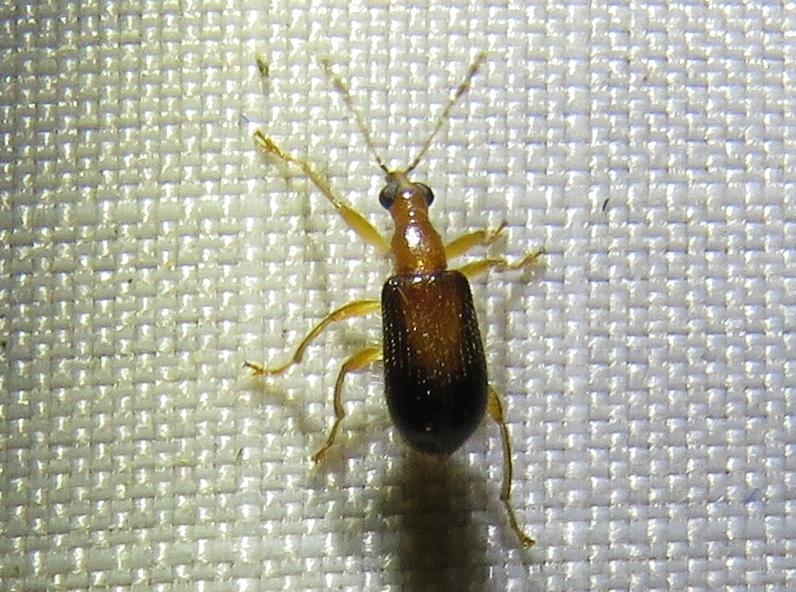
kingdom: Animalia
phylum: Arthropoda
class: Insecta
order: Coleoptera
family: Attelabidae
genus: Eugnamptus
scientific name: Eugnamptus cinctus
